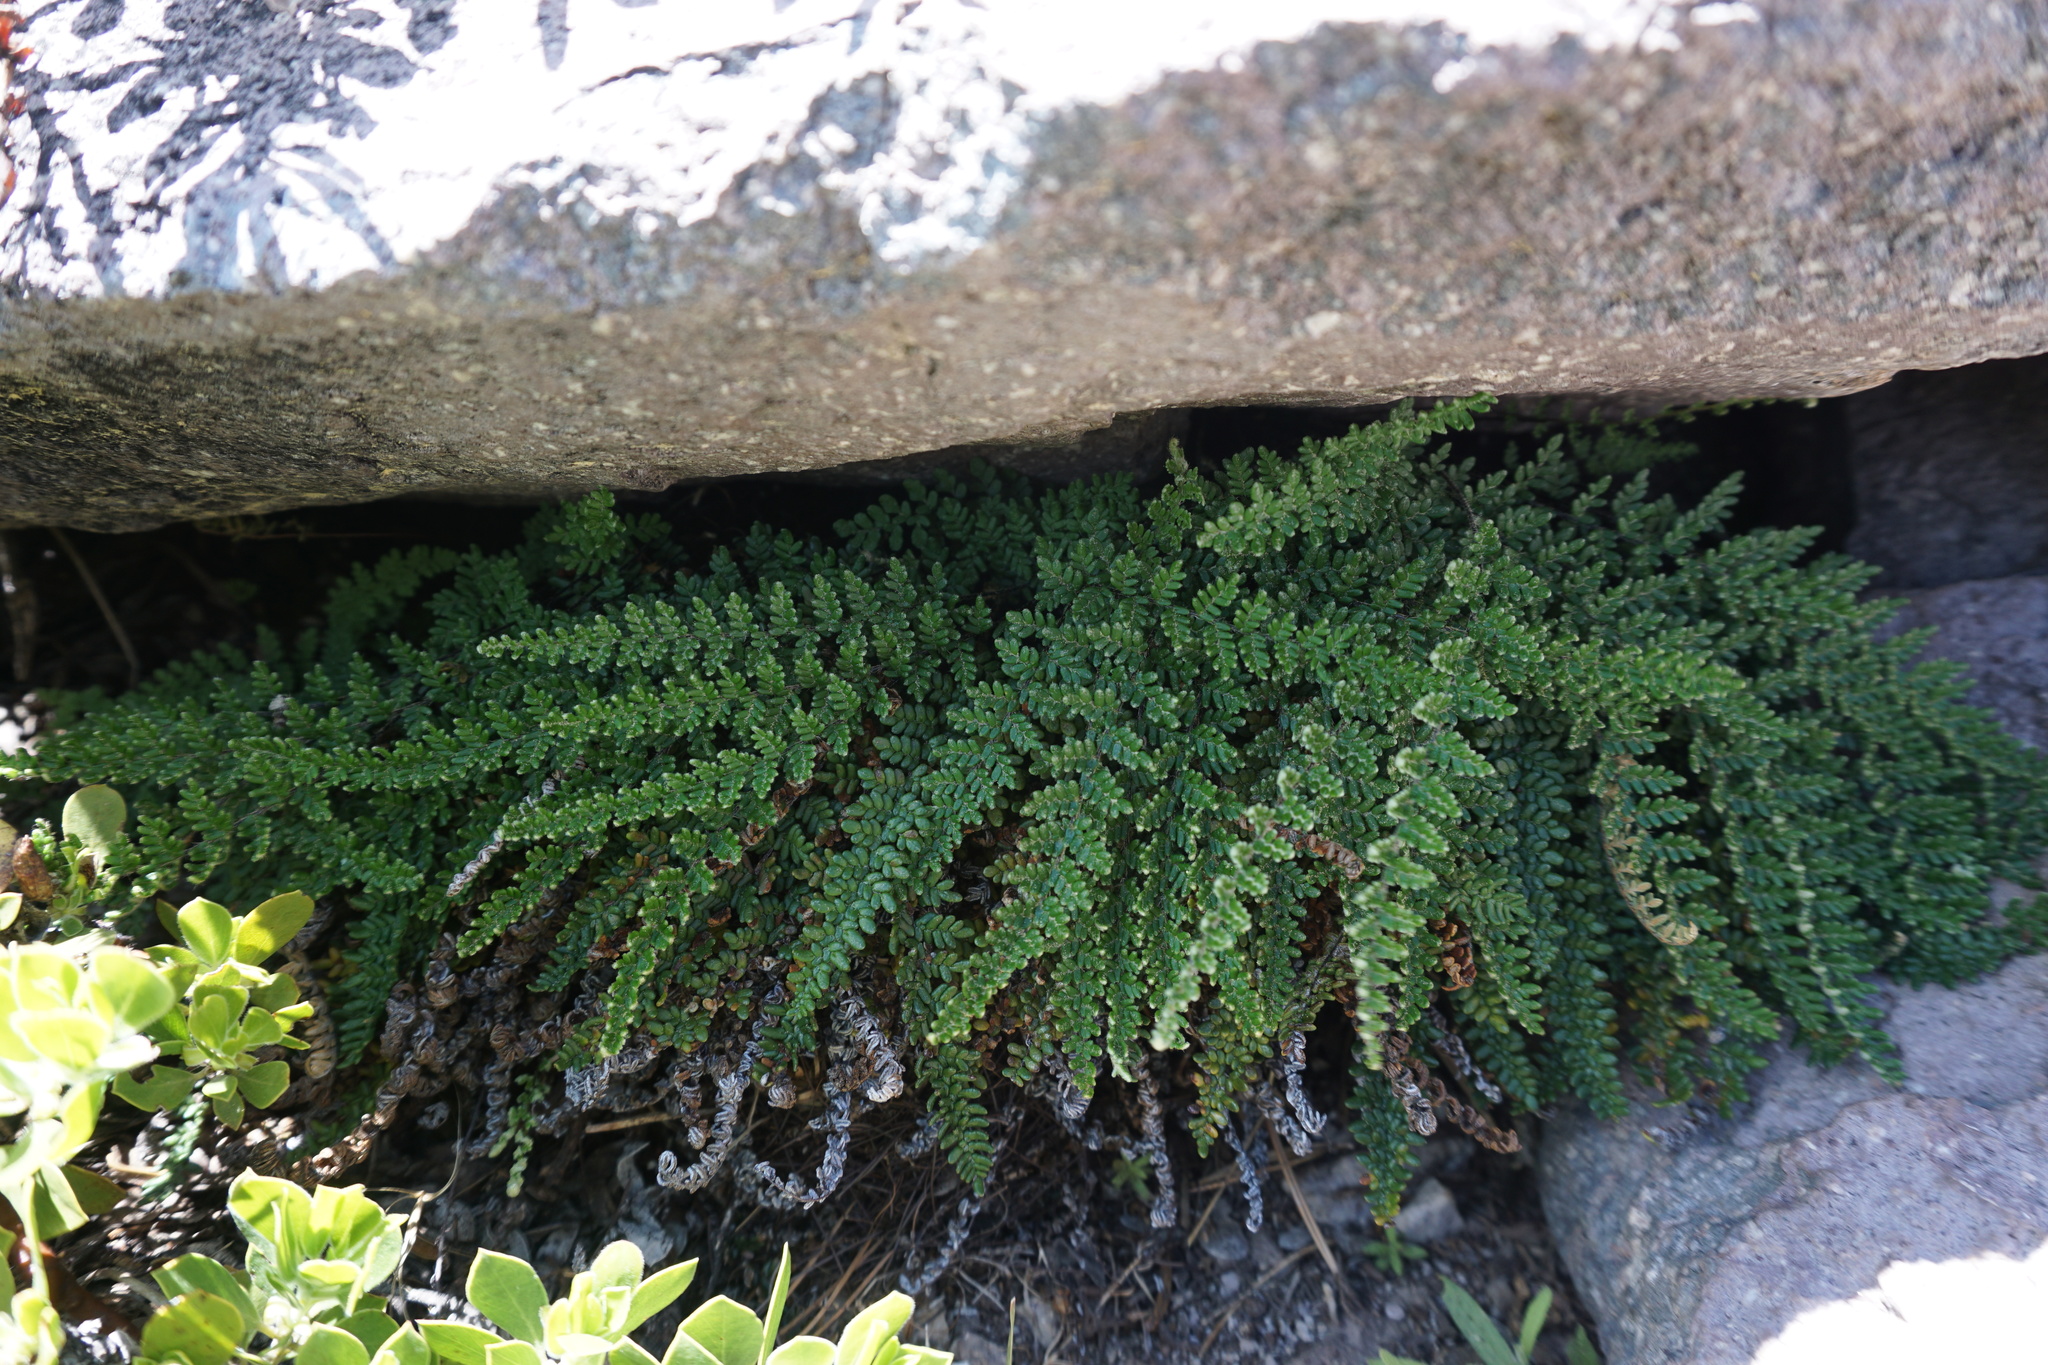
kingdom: Plantae
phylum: Tracheophyta
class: Polypodiopsida
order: Polypodiales
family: Pteridaceae
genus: Myriopteris
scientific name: Myriopteris gracillima
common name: Lace fern
